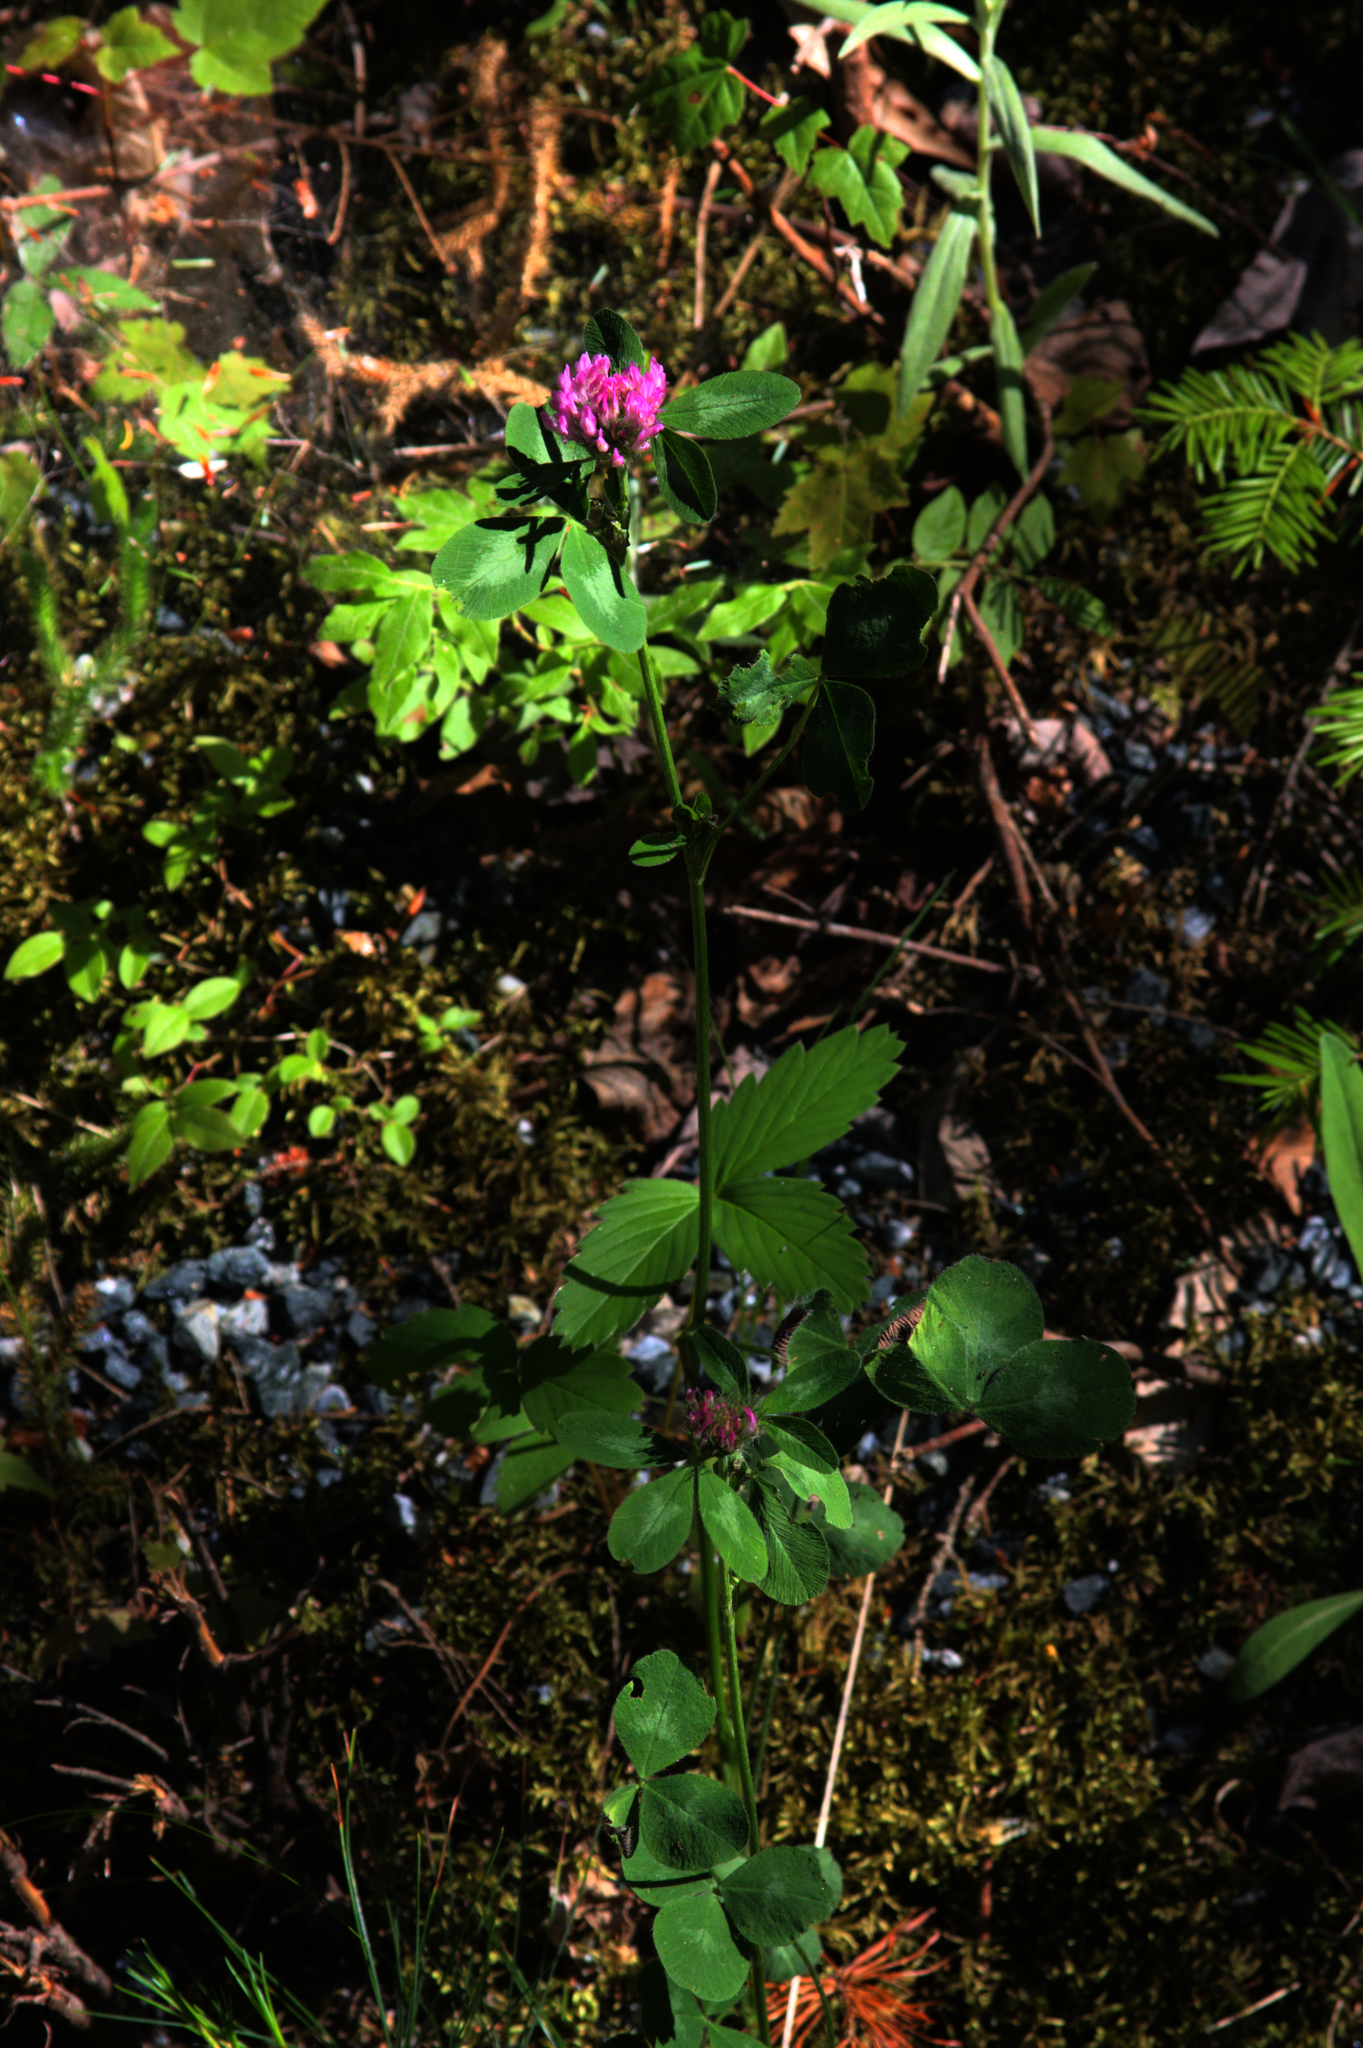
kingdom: Plantae
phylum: Tracheophyta
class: Magnoliopsida
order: Fabales
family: Fabaceae
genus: Trifolium
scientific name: Trifolium pratense
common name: Red clover
